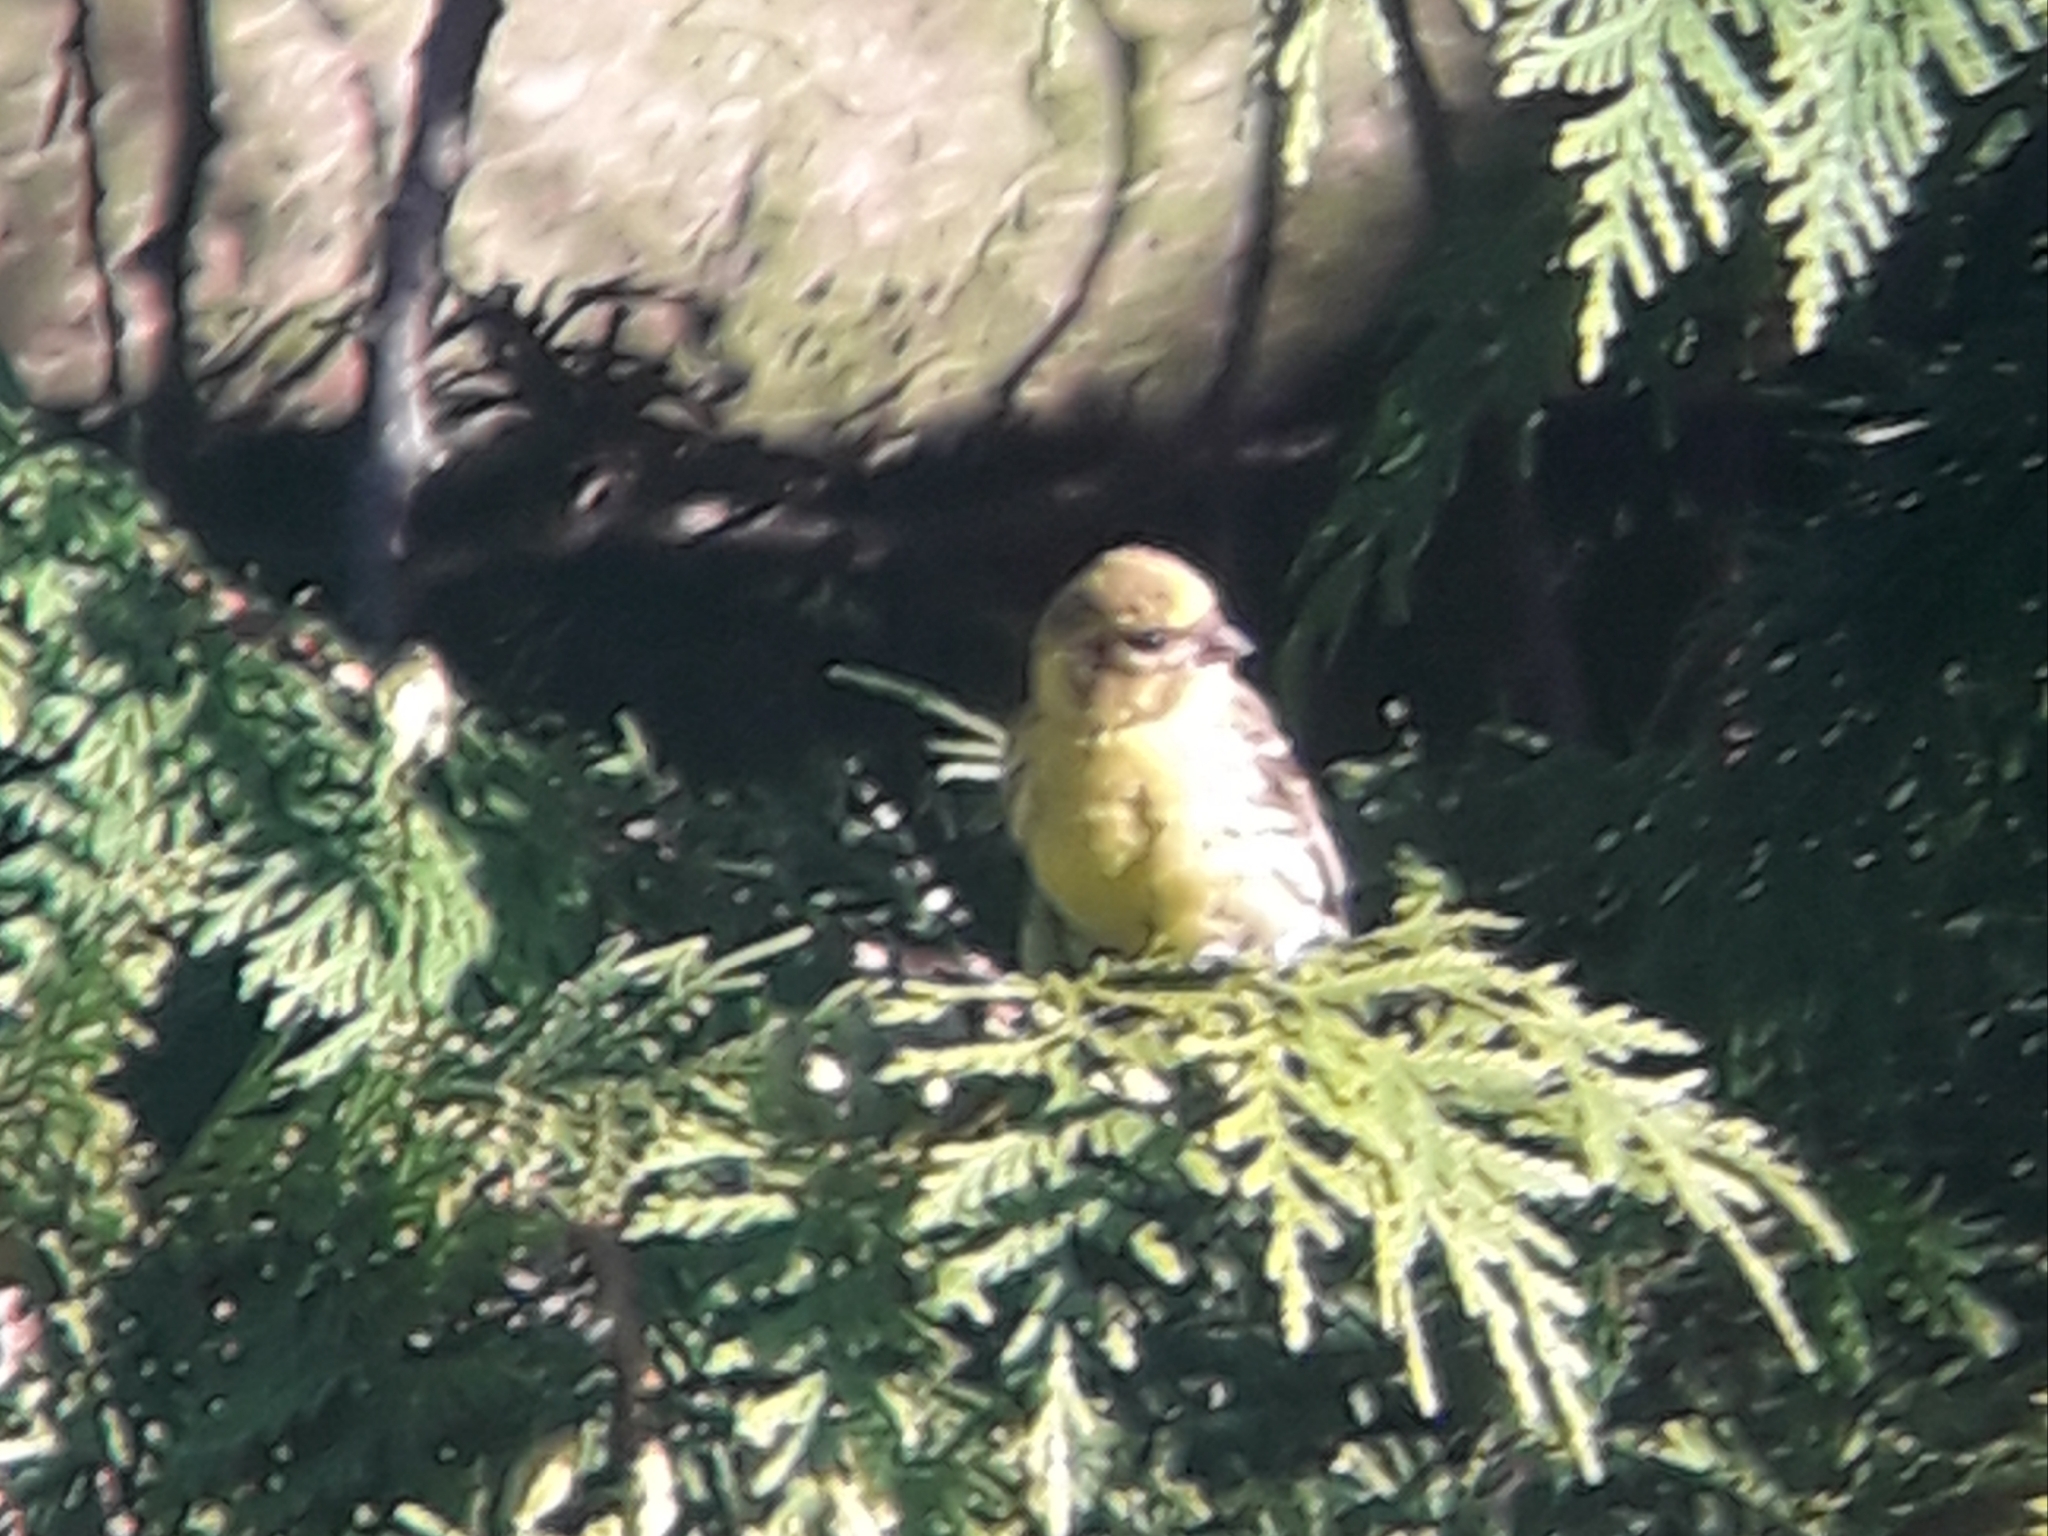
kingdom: Animalia
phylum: Chordata
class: Aves
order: Passeriformes
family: Fringillidae
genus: Serinus
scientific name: Serinus serinus
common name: European serin
